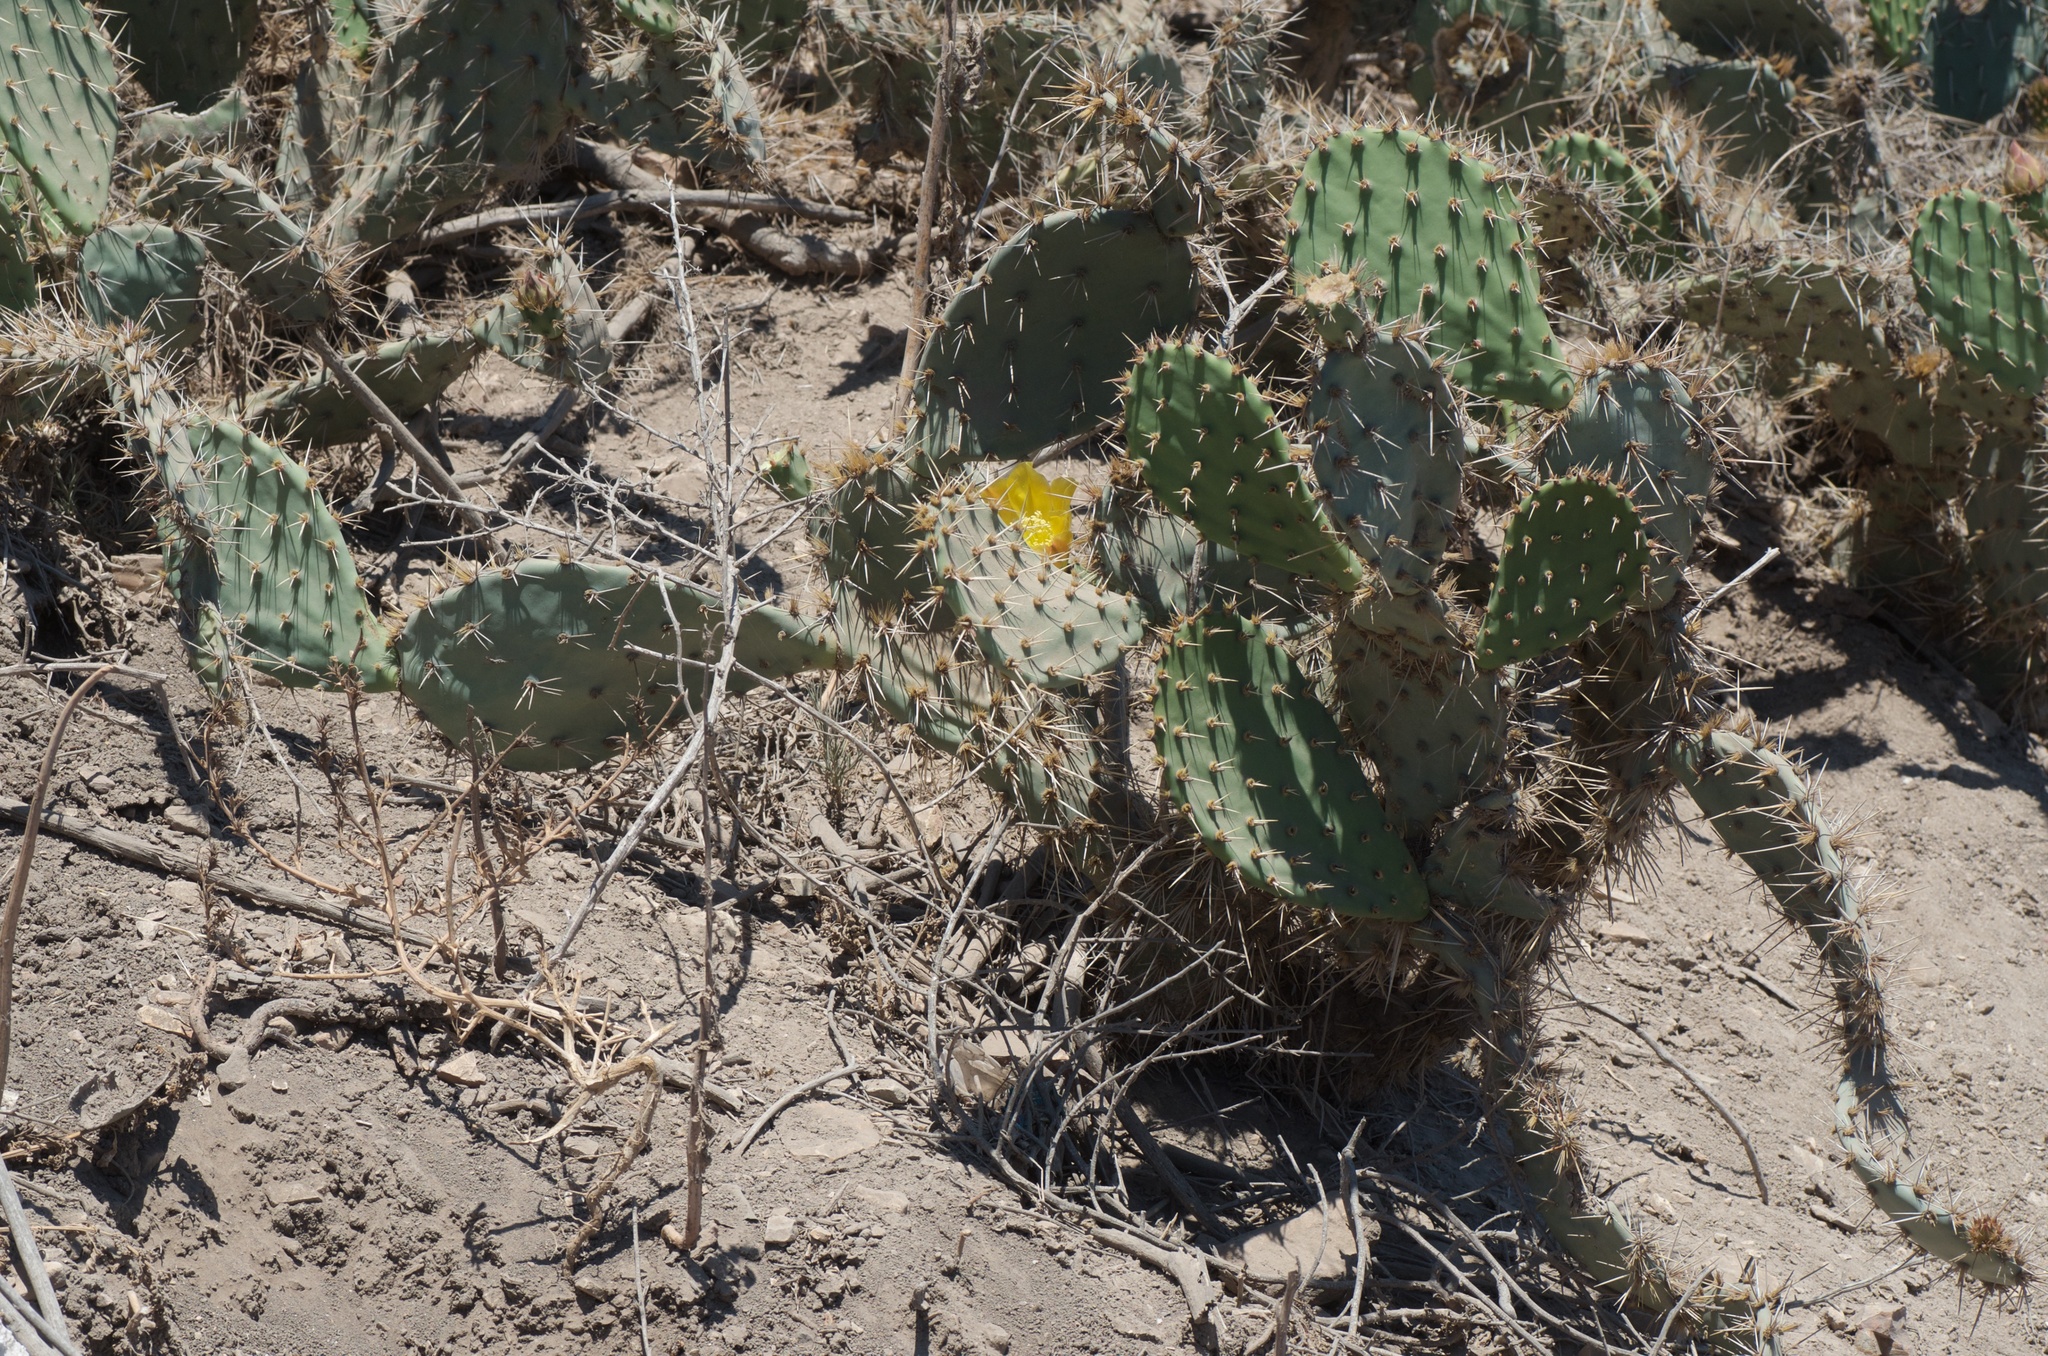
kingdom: Plantae
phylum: Tracheophyta
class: Magnoliopsida
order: Caryophyllales
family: Cactaceae
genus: Opuntia
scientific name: Opuntia littoralis
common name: Coastal prickly-pear
